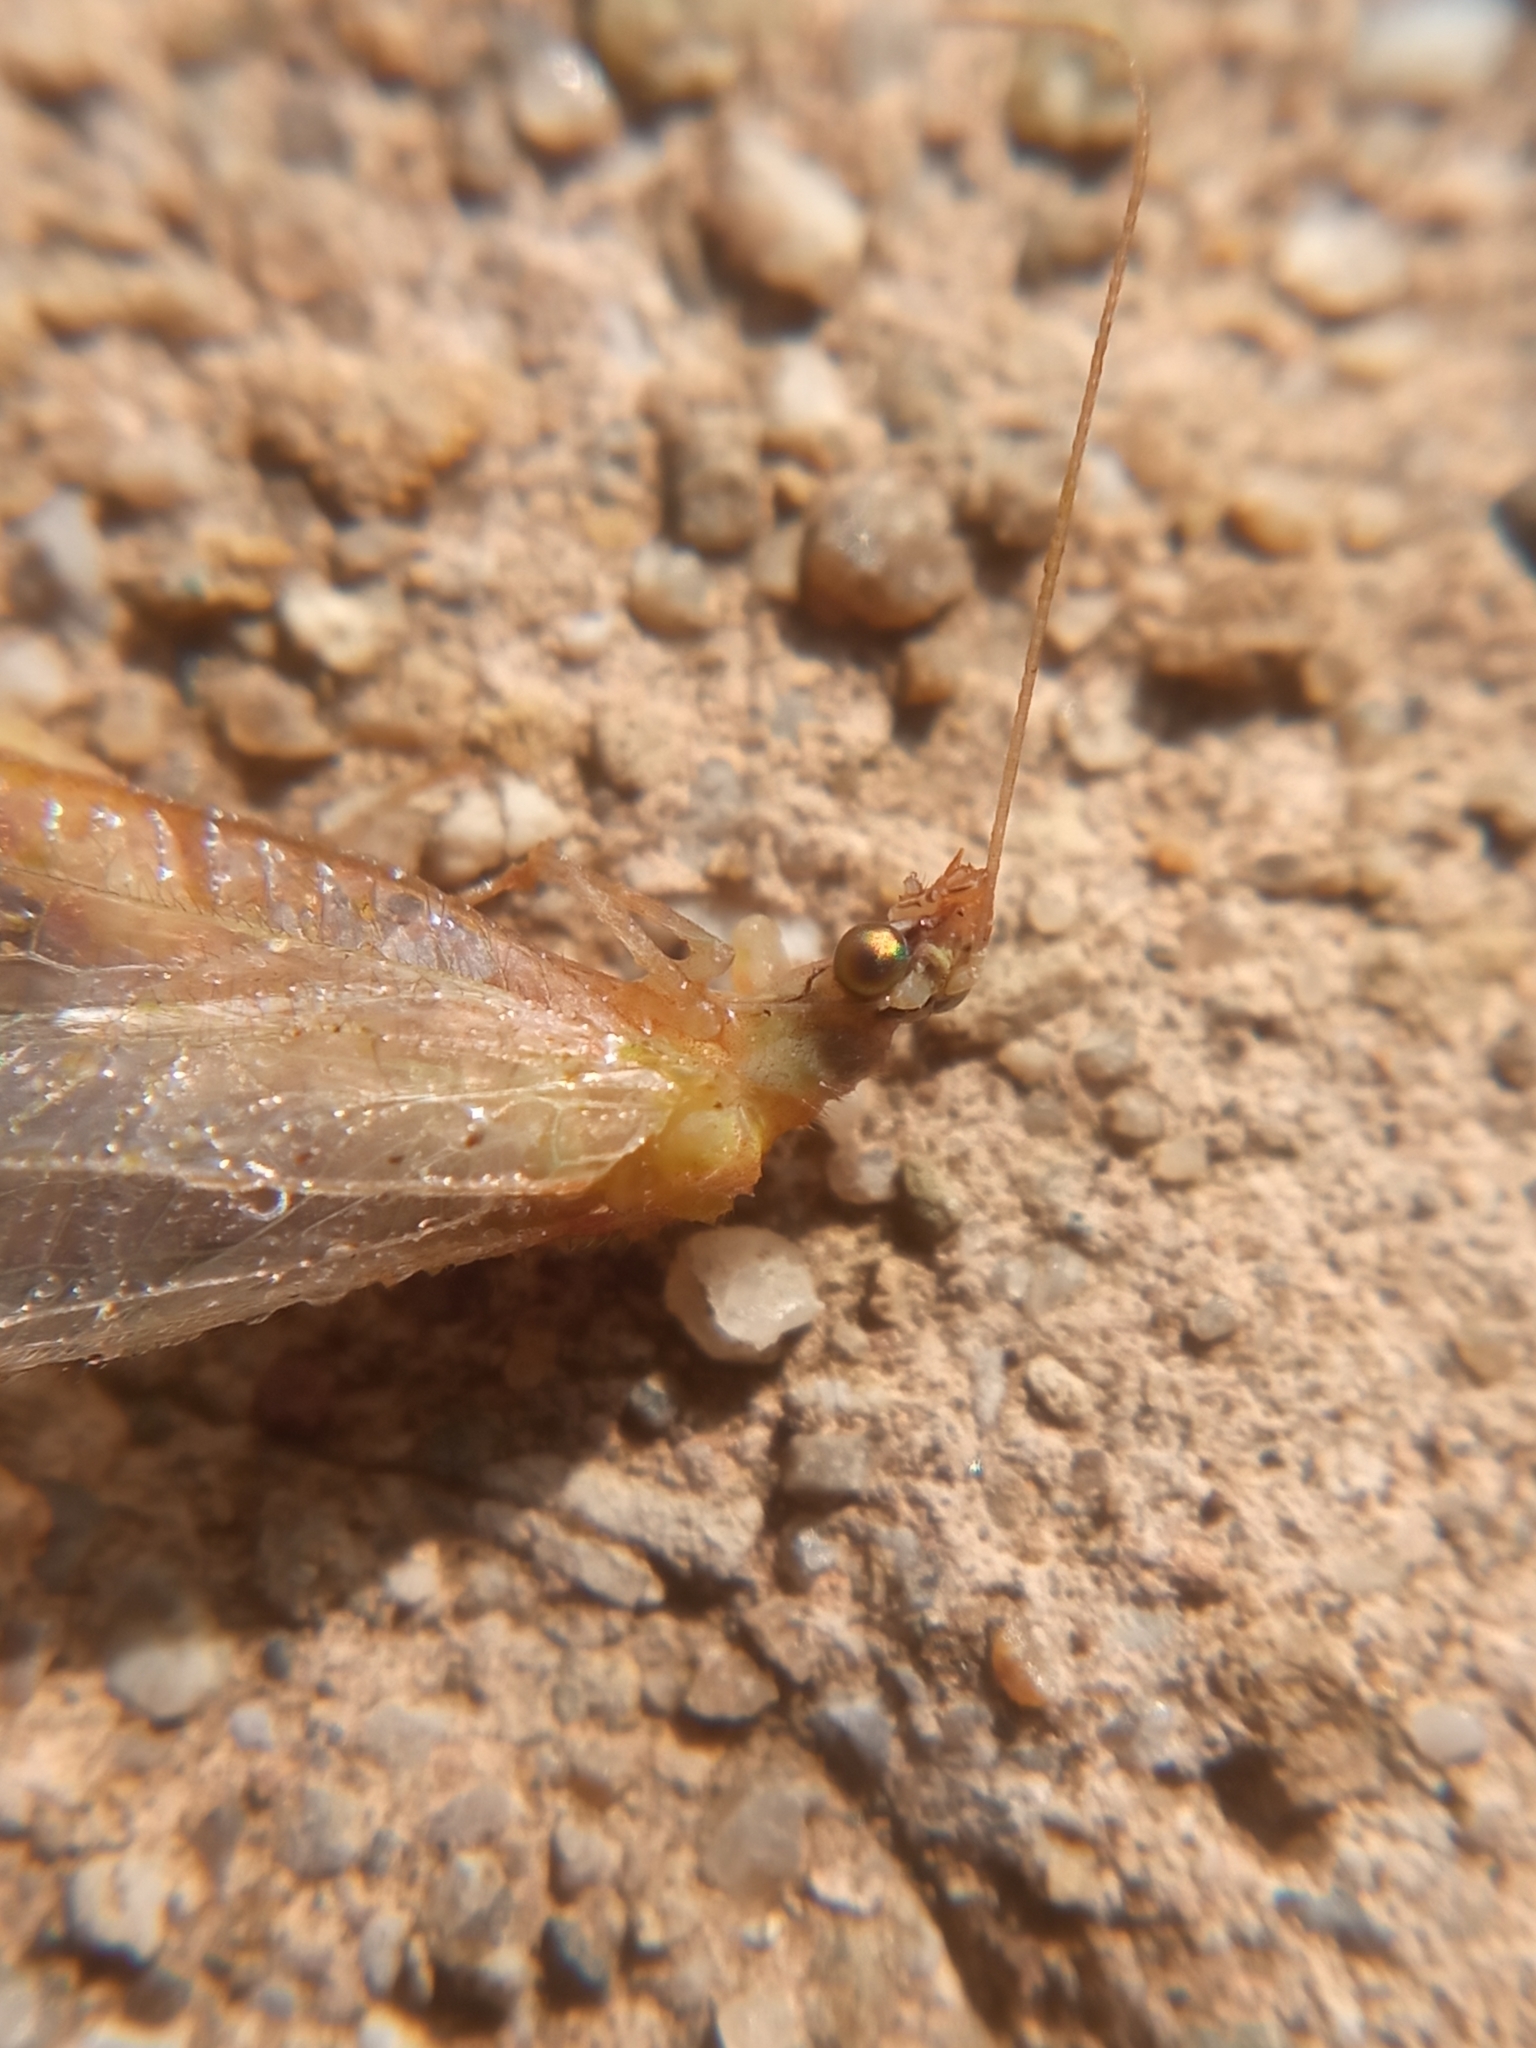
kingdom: Animalia
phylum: Arthropoda
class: Insecta
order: Neuroptera
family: Chrysopidae
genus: Chrysoperla
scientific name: Chrysoperla
